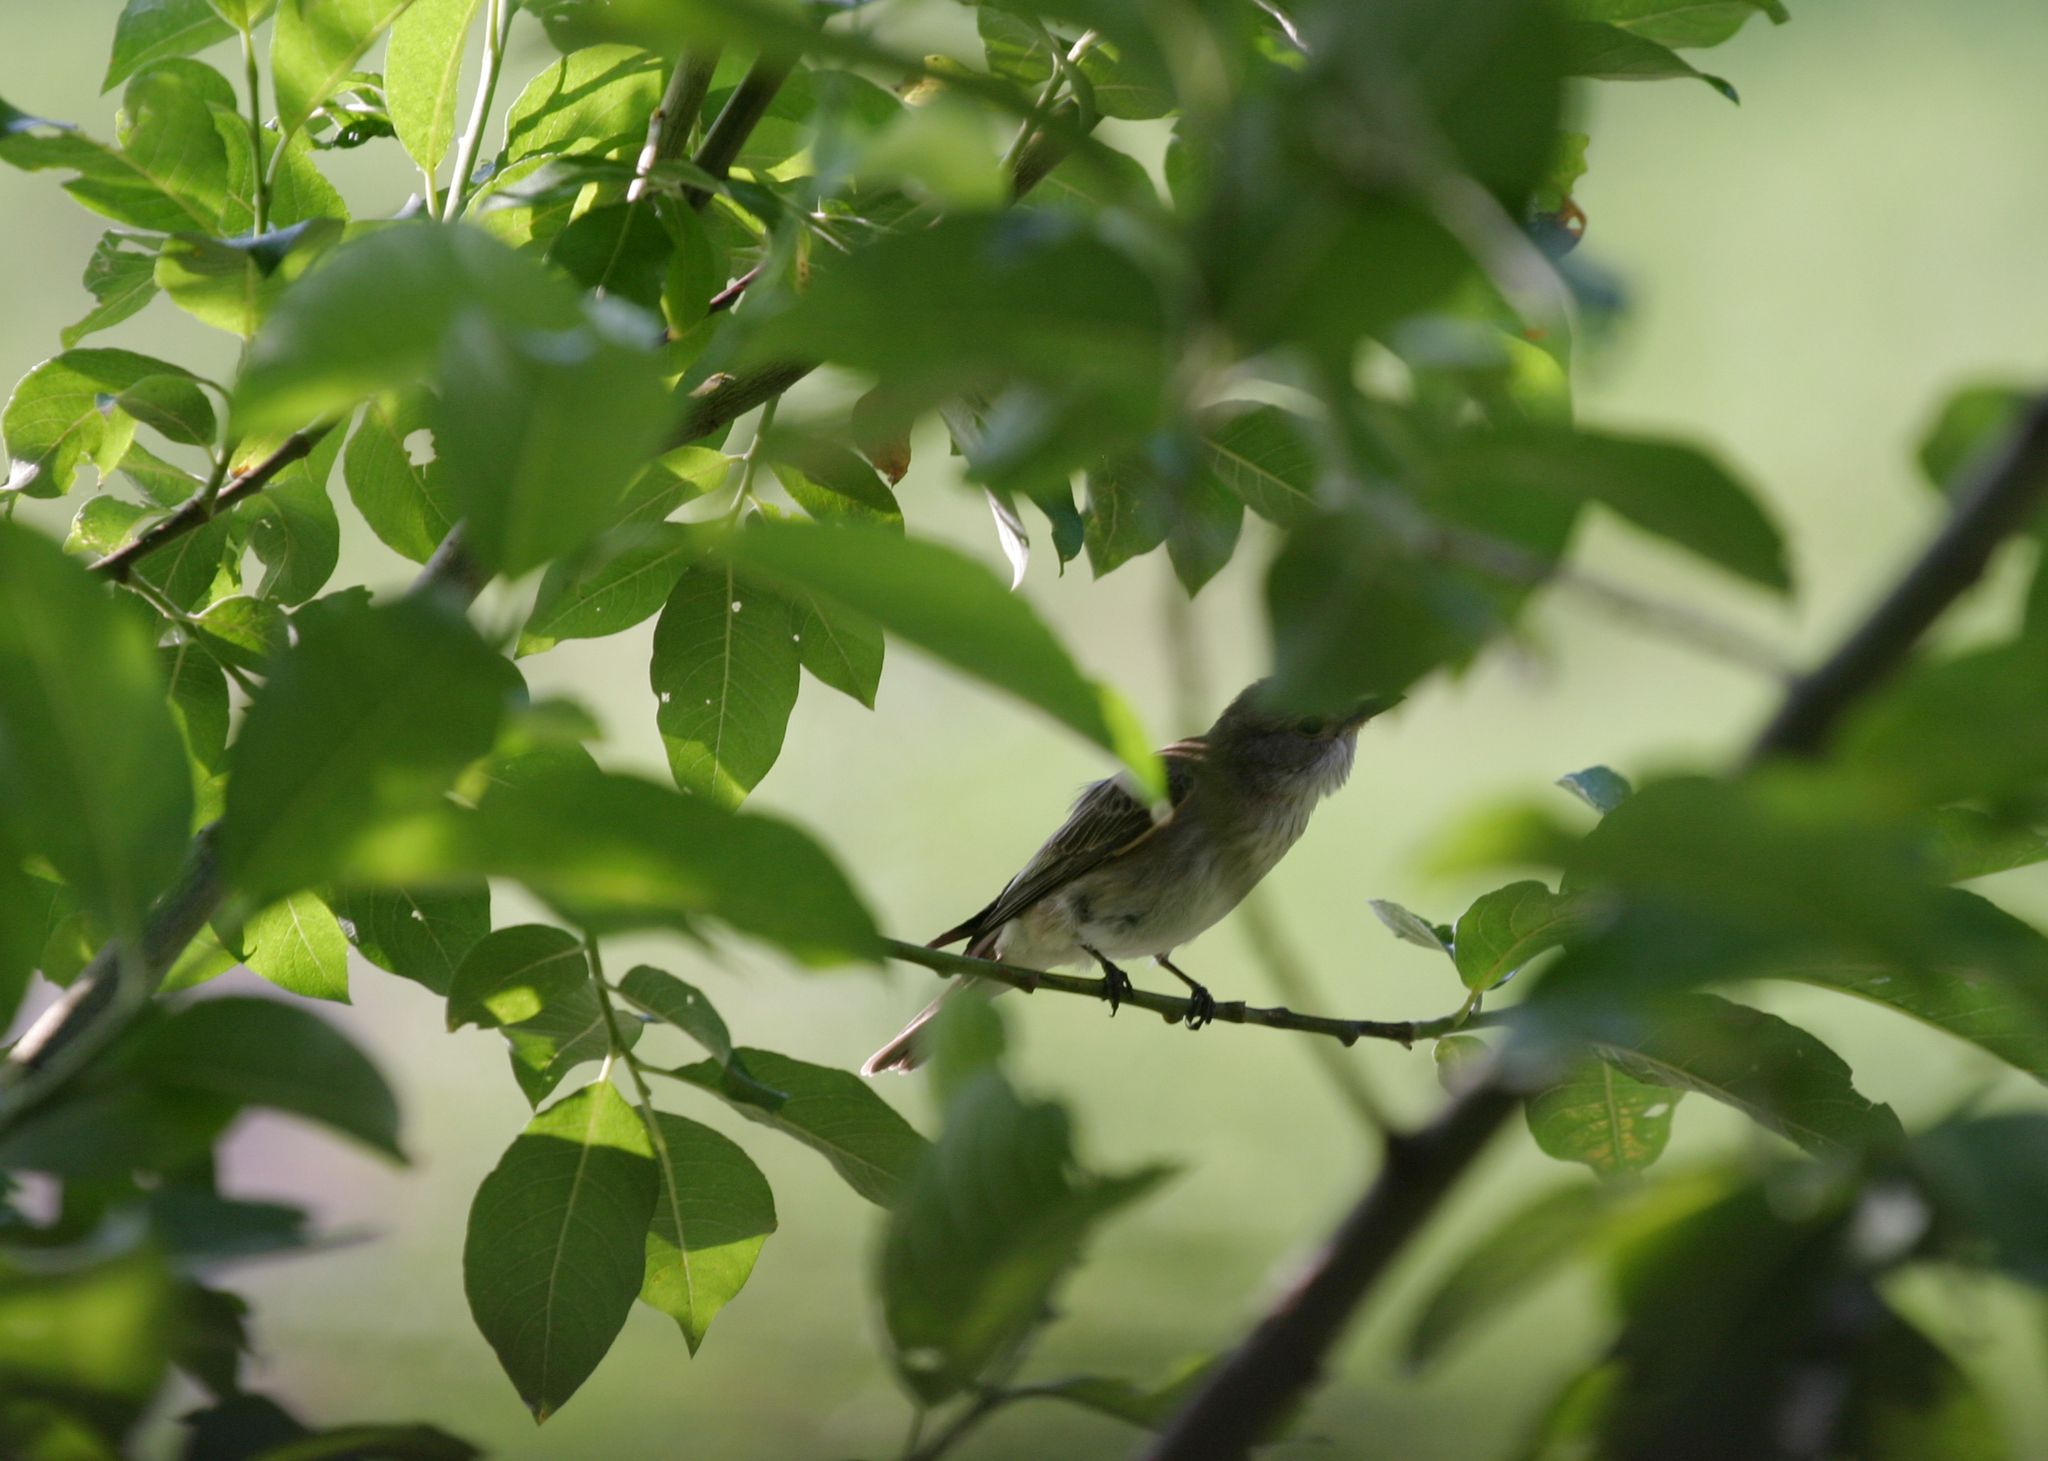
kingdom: Plantae
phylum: Tracheophyta
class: Magnoliopsida
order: Malpighiales
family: Salicaceae
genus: Salix
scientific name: Salix caprea
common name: Goat willow
